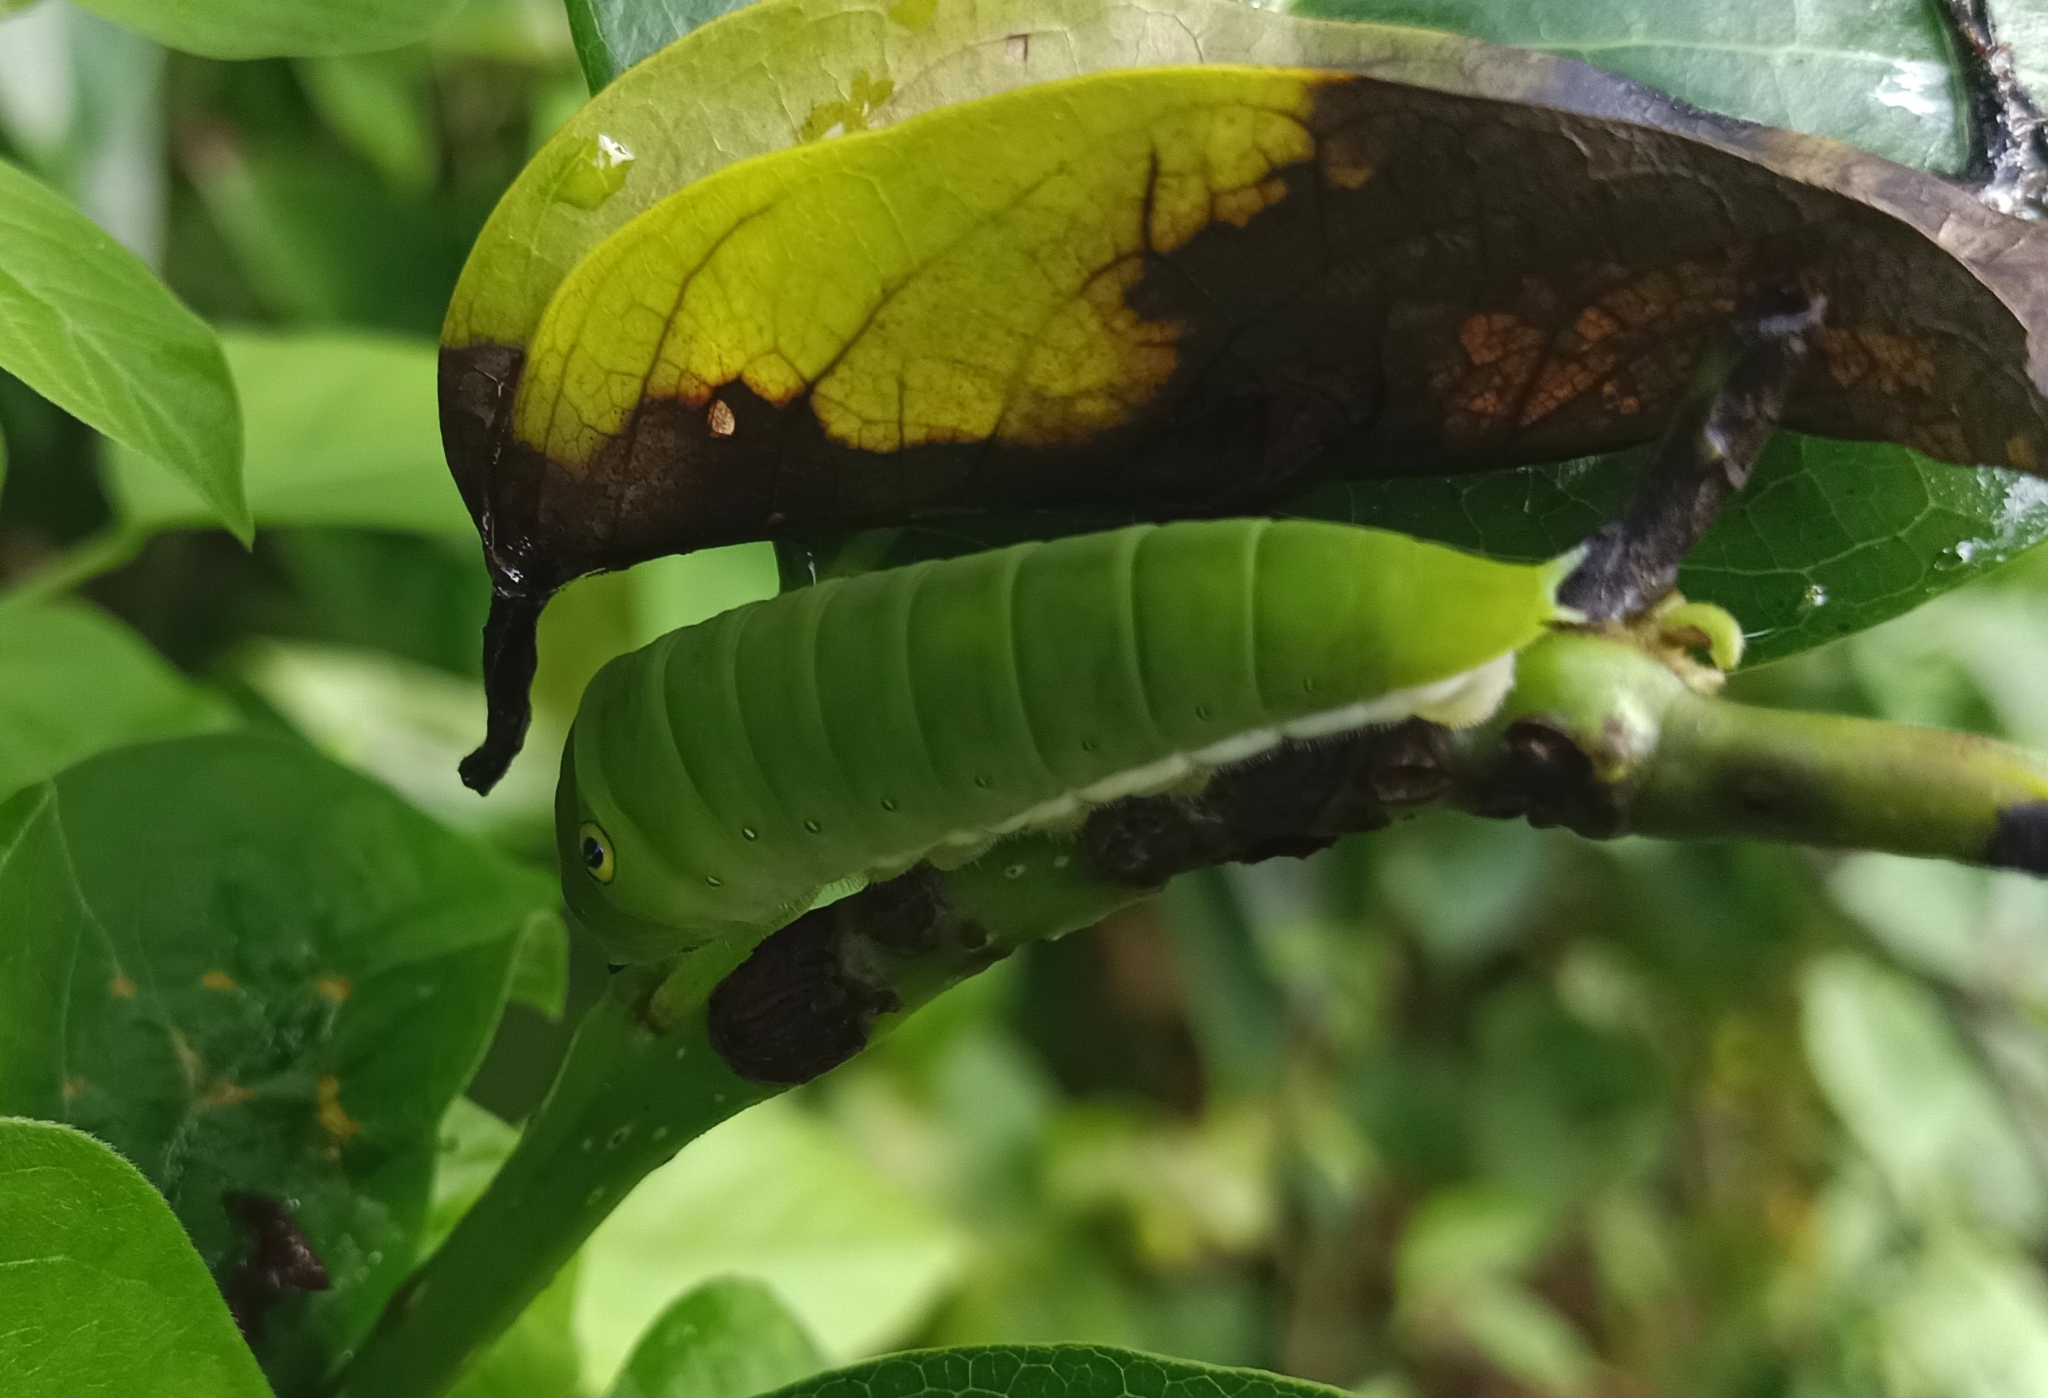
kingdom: Animalia
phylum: Arthropoda
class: Insecta
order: Lepidoptera
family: Papilionidae
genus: Graphium
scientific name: Graphium doson
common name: Common jay
